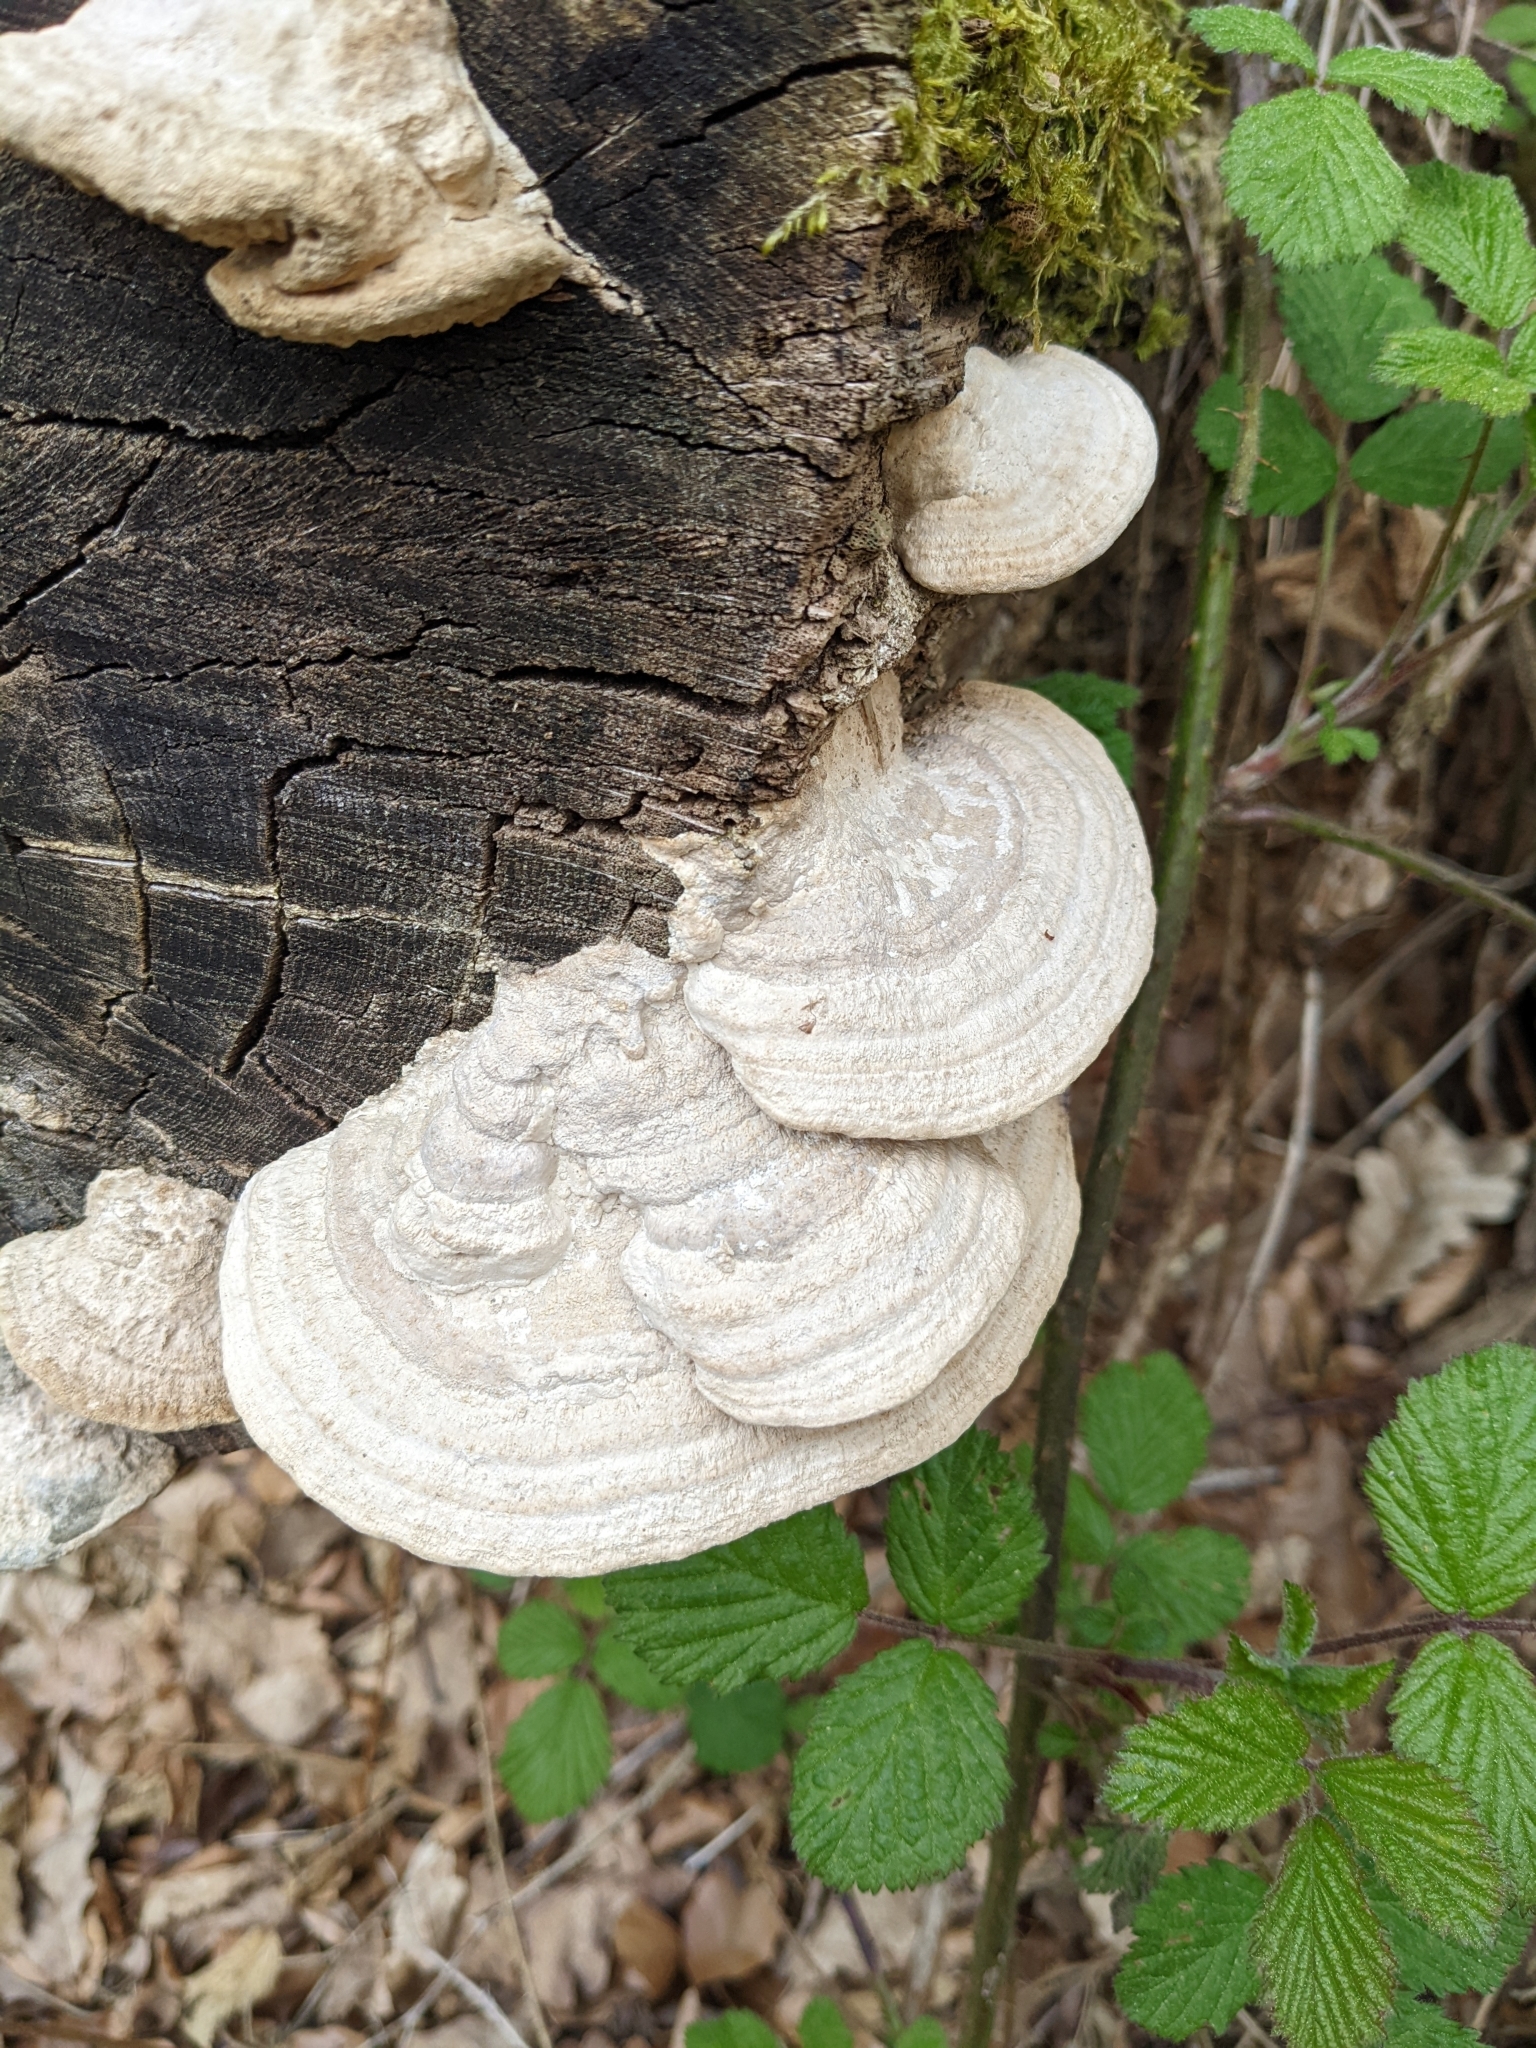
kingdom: Fungi
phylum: Basidiomycota
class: Agaricomycetes
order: Polyporales
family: Fomitopsidaceae
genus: Fomitopsis
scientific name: Fomitopsis
